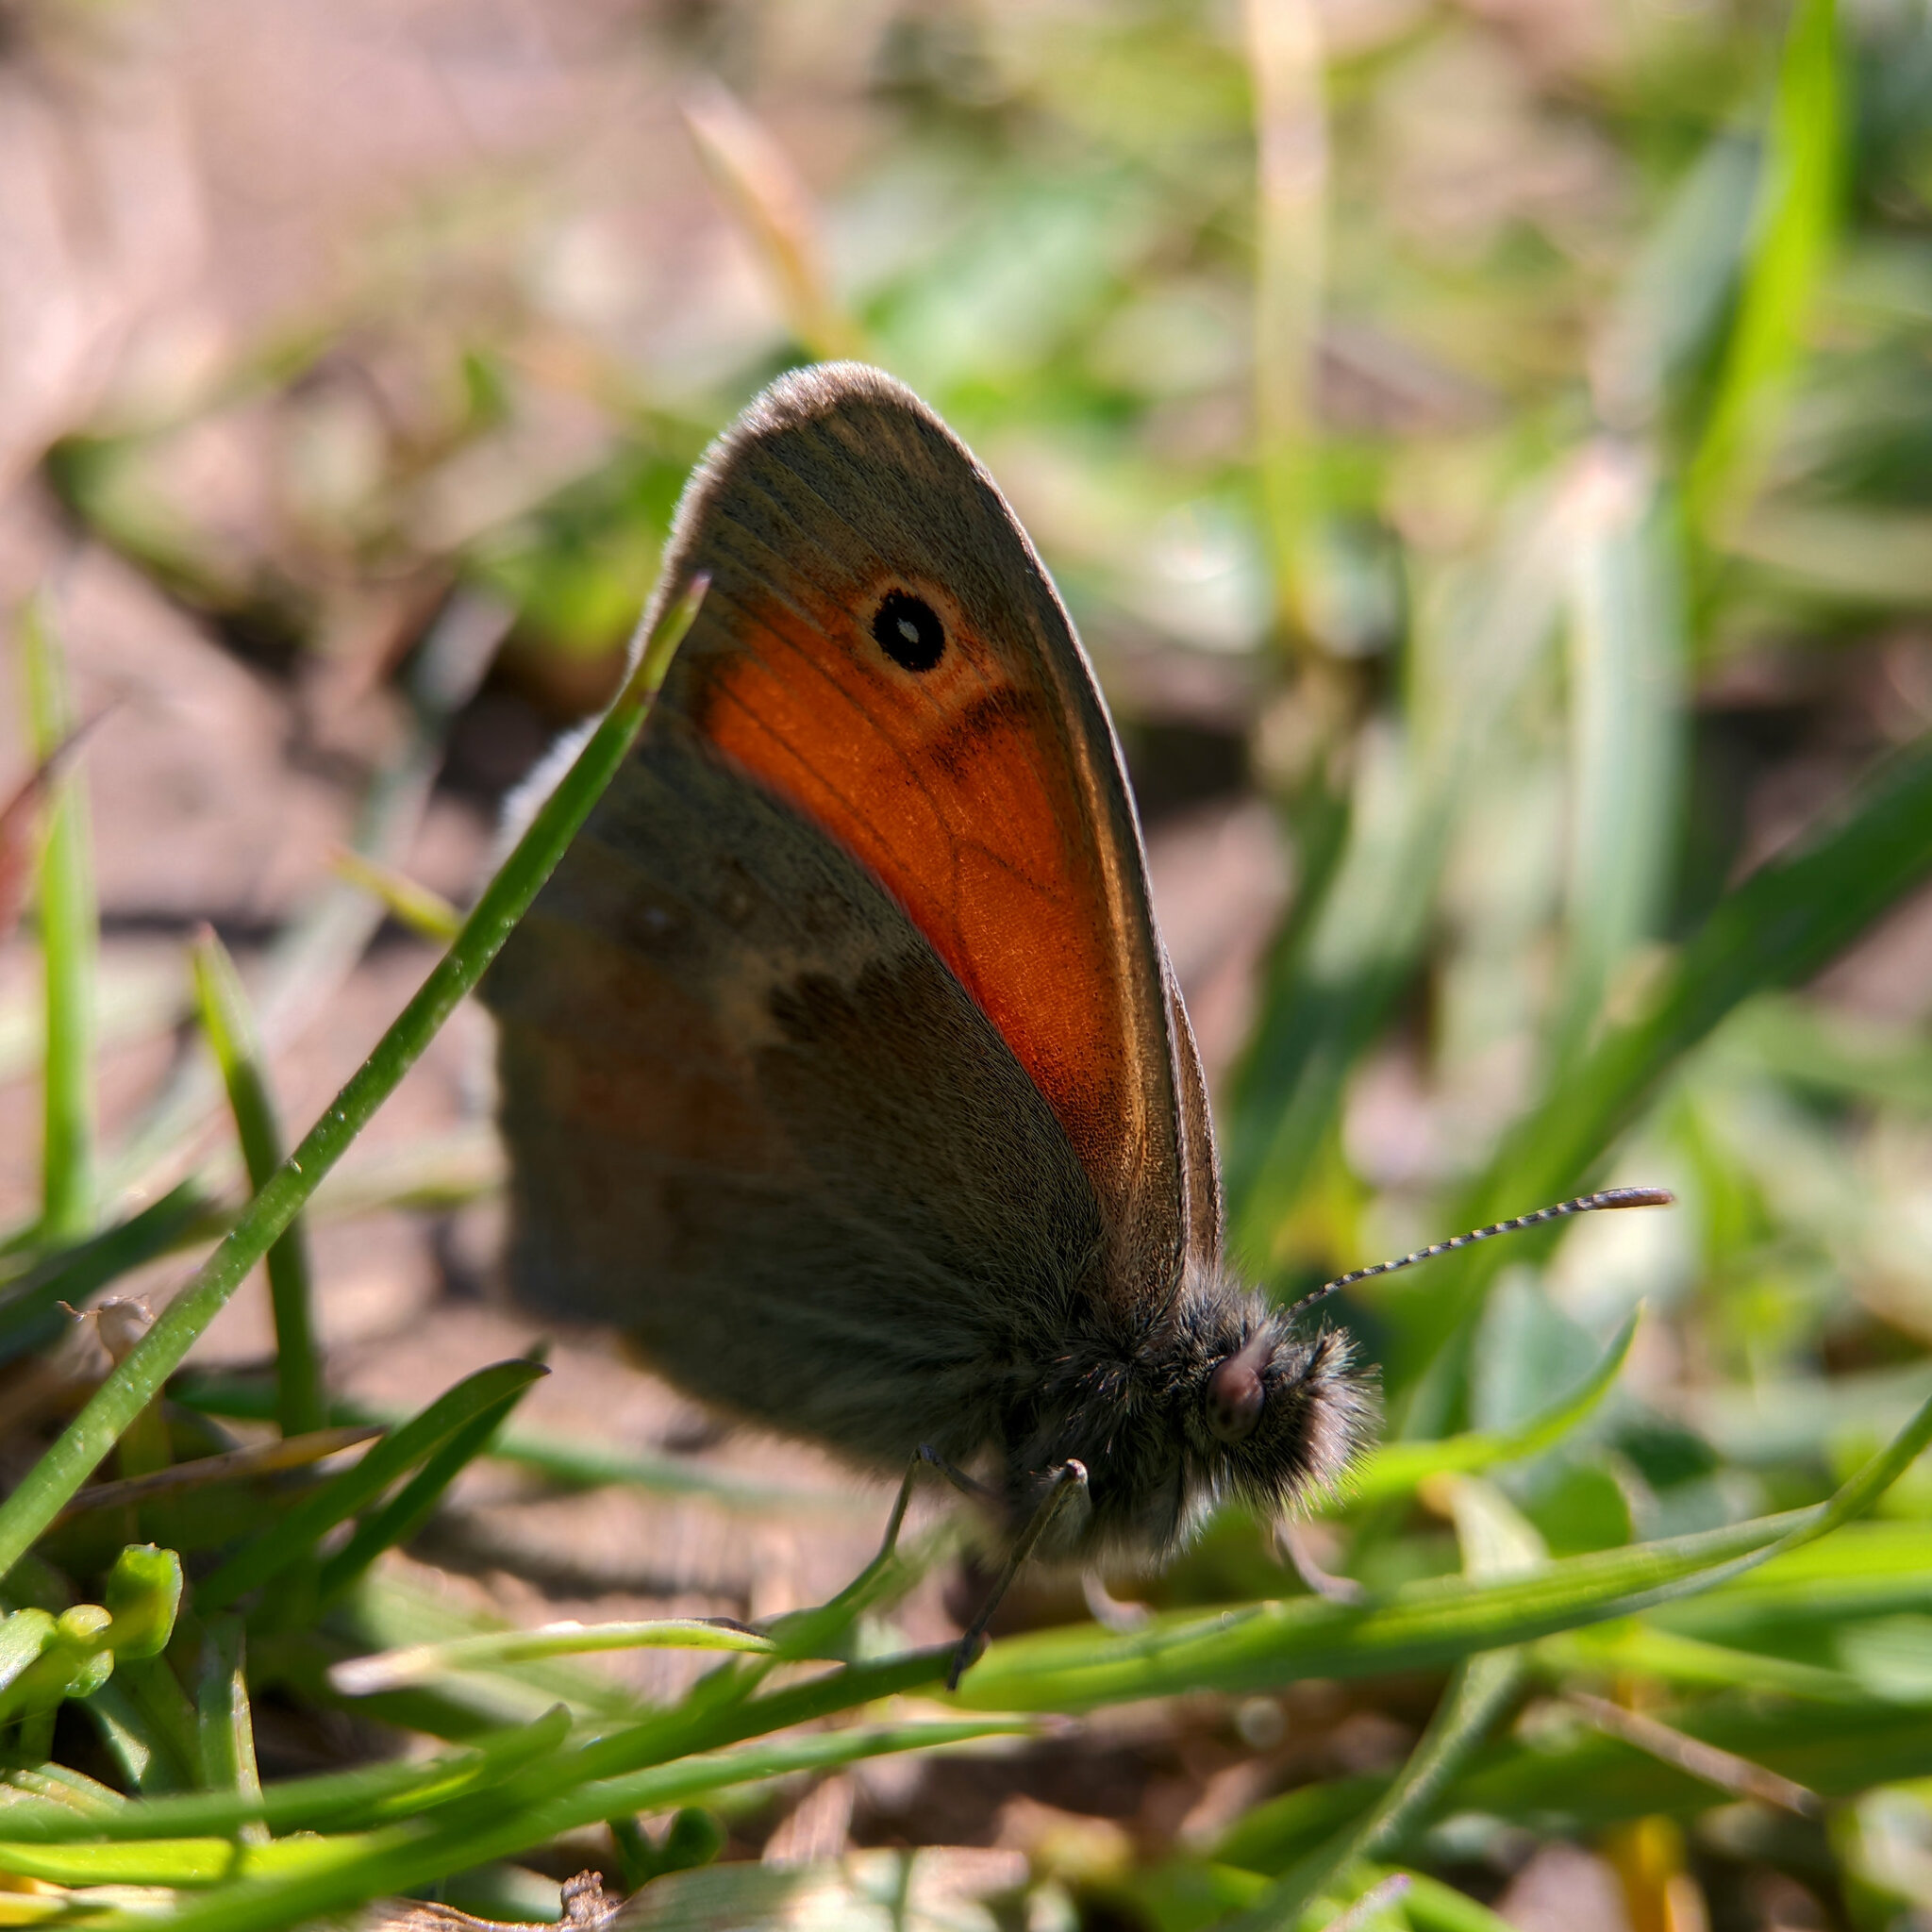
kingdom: Animalia
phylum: Arthropoda
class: Insecta
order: Lepidoptera
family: Nymphalidae
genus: Coenonympha
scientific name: Coenonympha pamphilus
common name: Small heath
